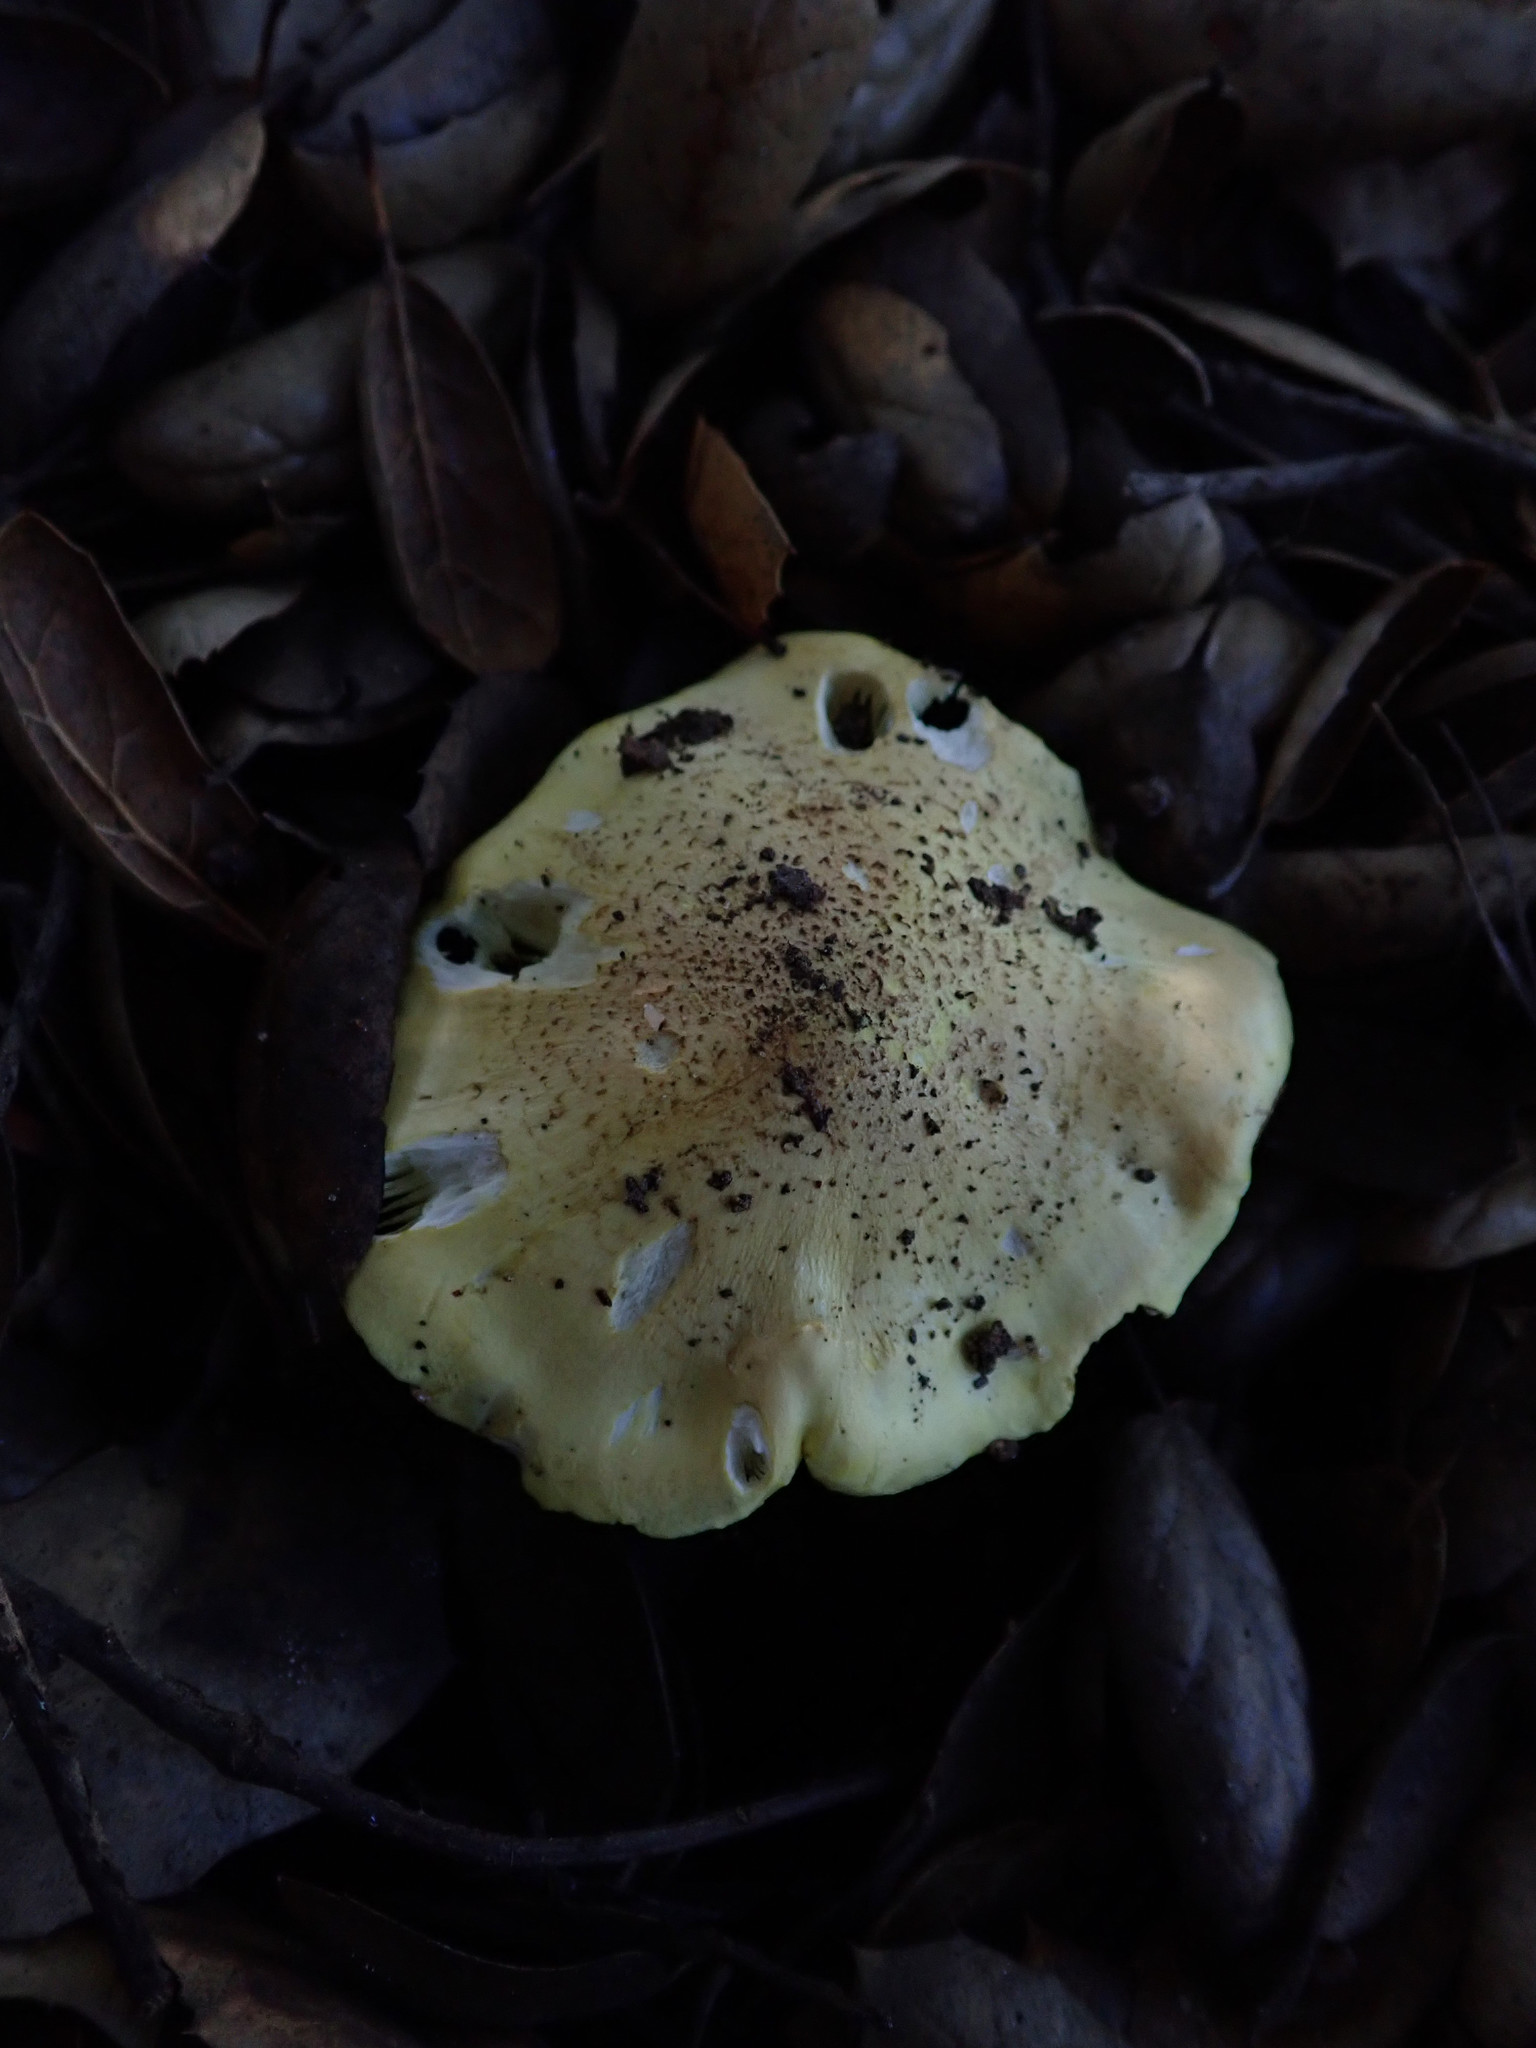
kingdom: Fungi
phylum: Basidiomycota
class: Agaricomycetes
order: Agaricales
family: Tricholomataceae
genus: Melanoleuca
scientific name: Melanoleuca yatesii
